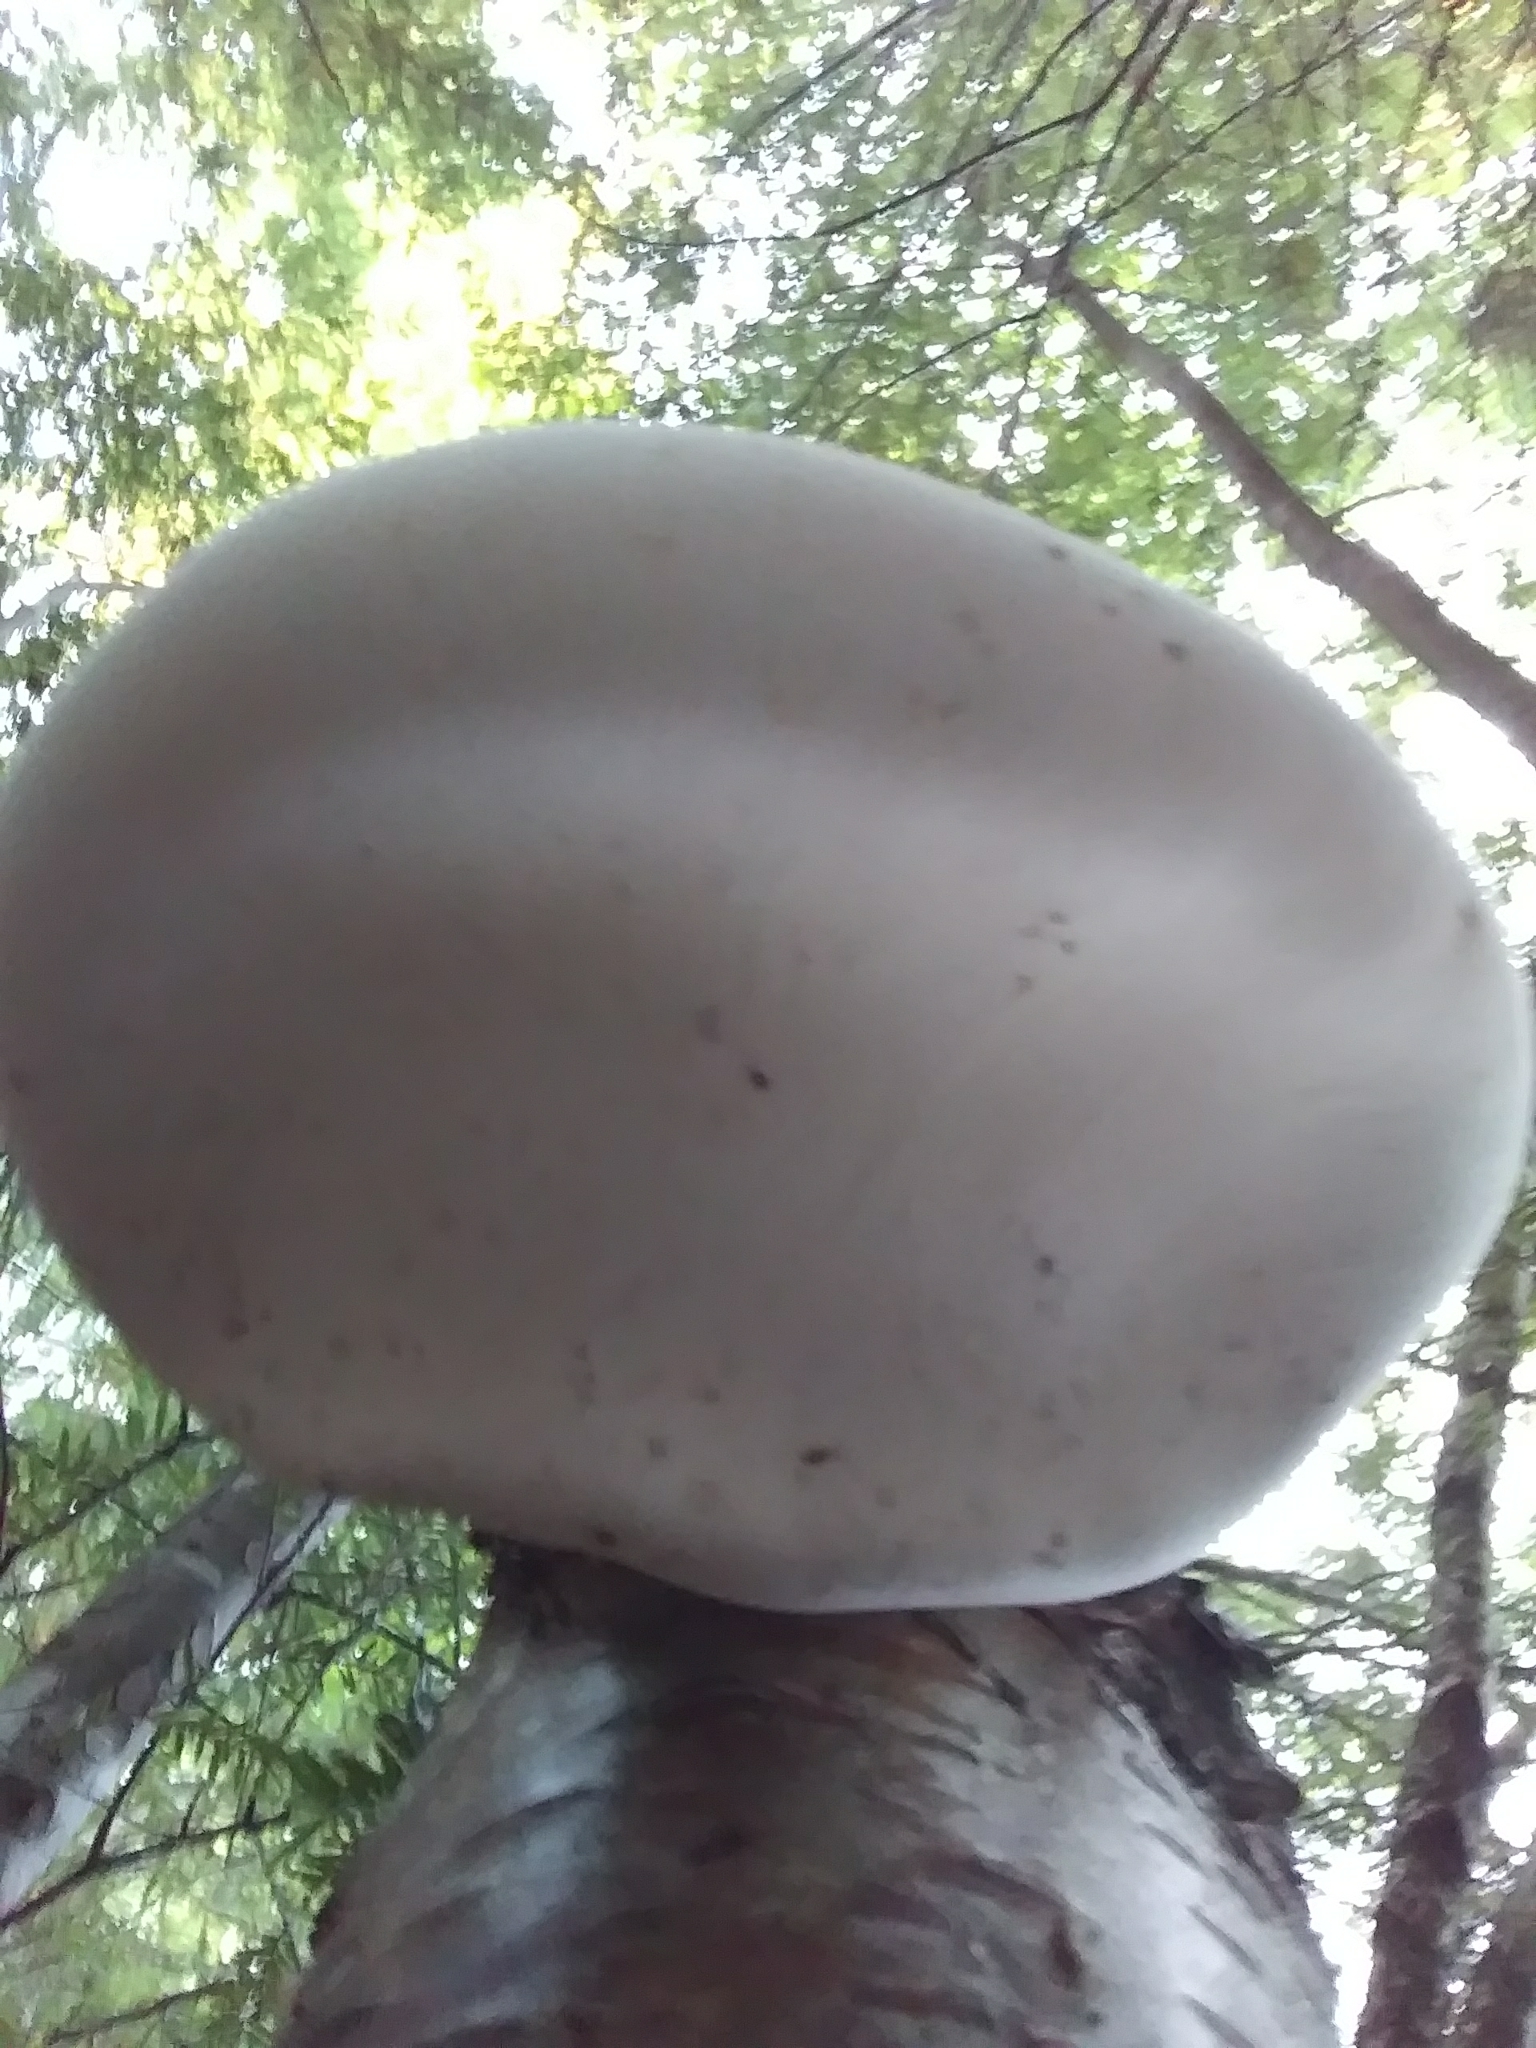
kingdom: Fungi
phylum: Basidiomycota
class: Agaricomycetes
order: Polyporales
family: Fomitopsidaceae
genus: Fomitopsis
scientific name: Fomitopsis betulina
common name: Birch polypore
